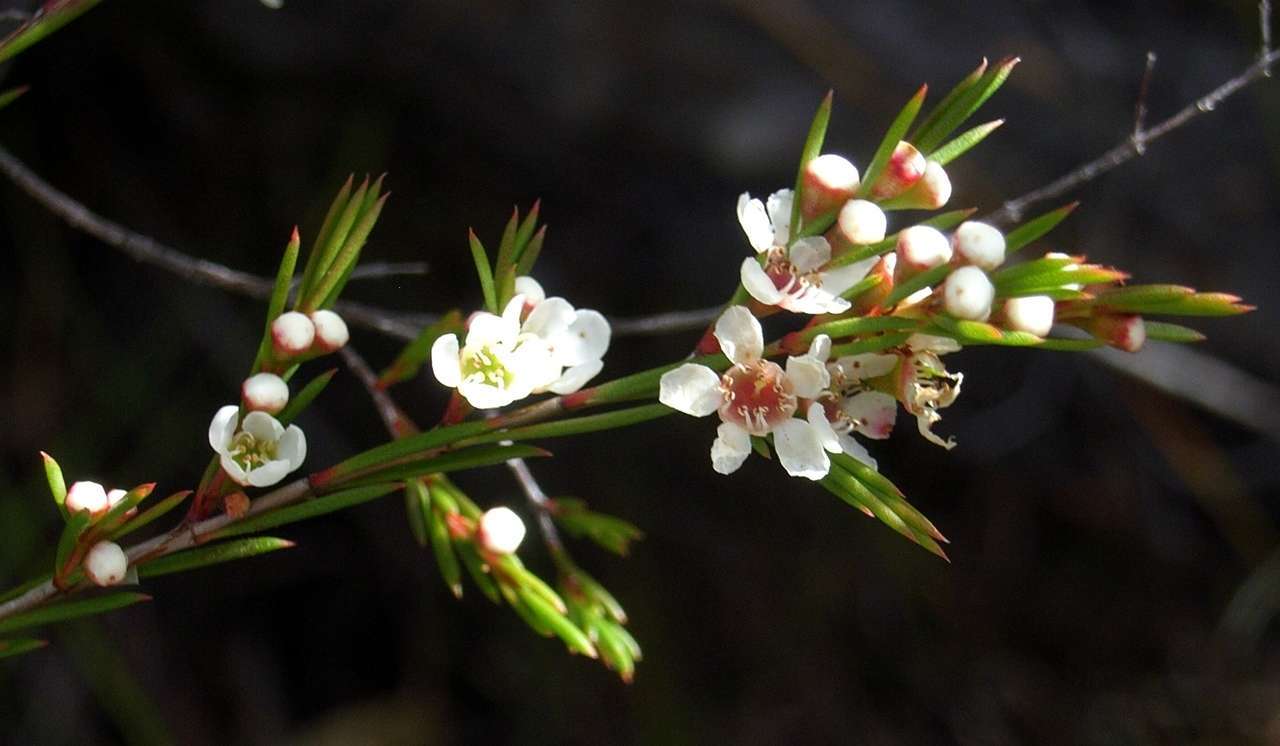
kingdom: Plantae
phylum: Tracheophyta
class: Magnoliopsida
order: Myrtales
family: Myrtaceae
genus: Baeckea
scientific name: Baeckea linifolia
